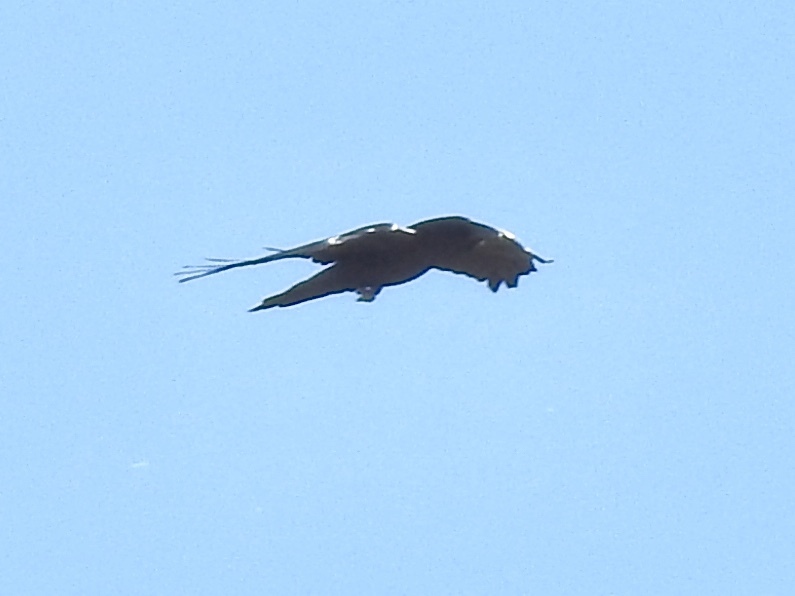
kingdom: Animalia
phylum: Chordata
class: Aves
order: Passeriformes
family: Corvidae
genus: Corvus
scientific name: Corvus corax
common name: Common raven
